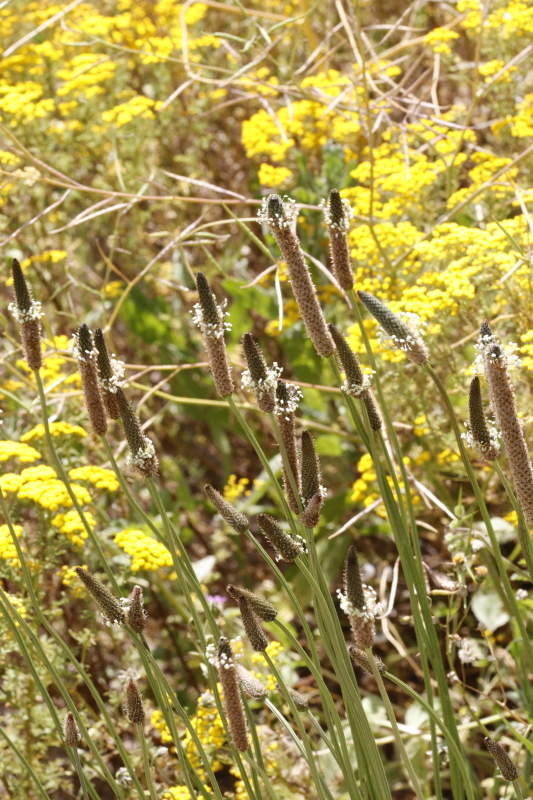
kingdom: Plantae
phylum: Tracheophyta
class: Magnoliopsida
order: Lamiales
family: Plantaginaceae
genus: Plantago
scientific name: Plantago lanceolata
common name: Ribwort plantain
